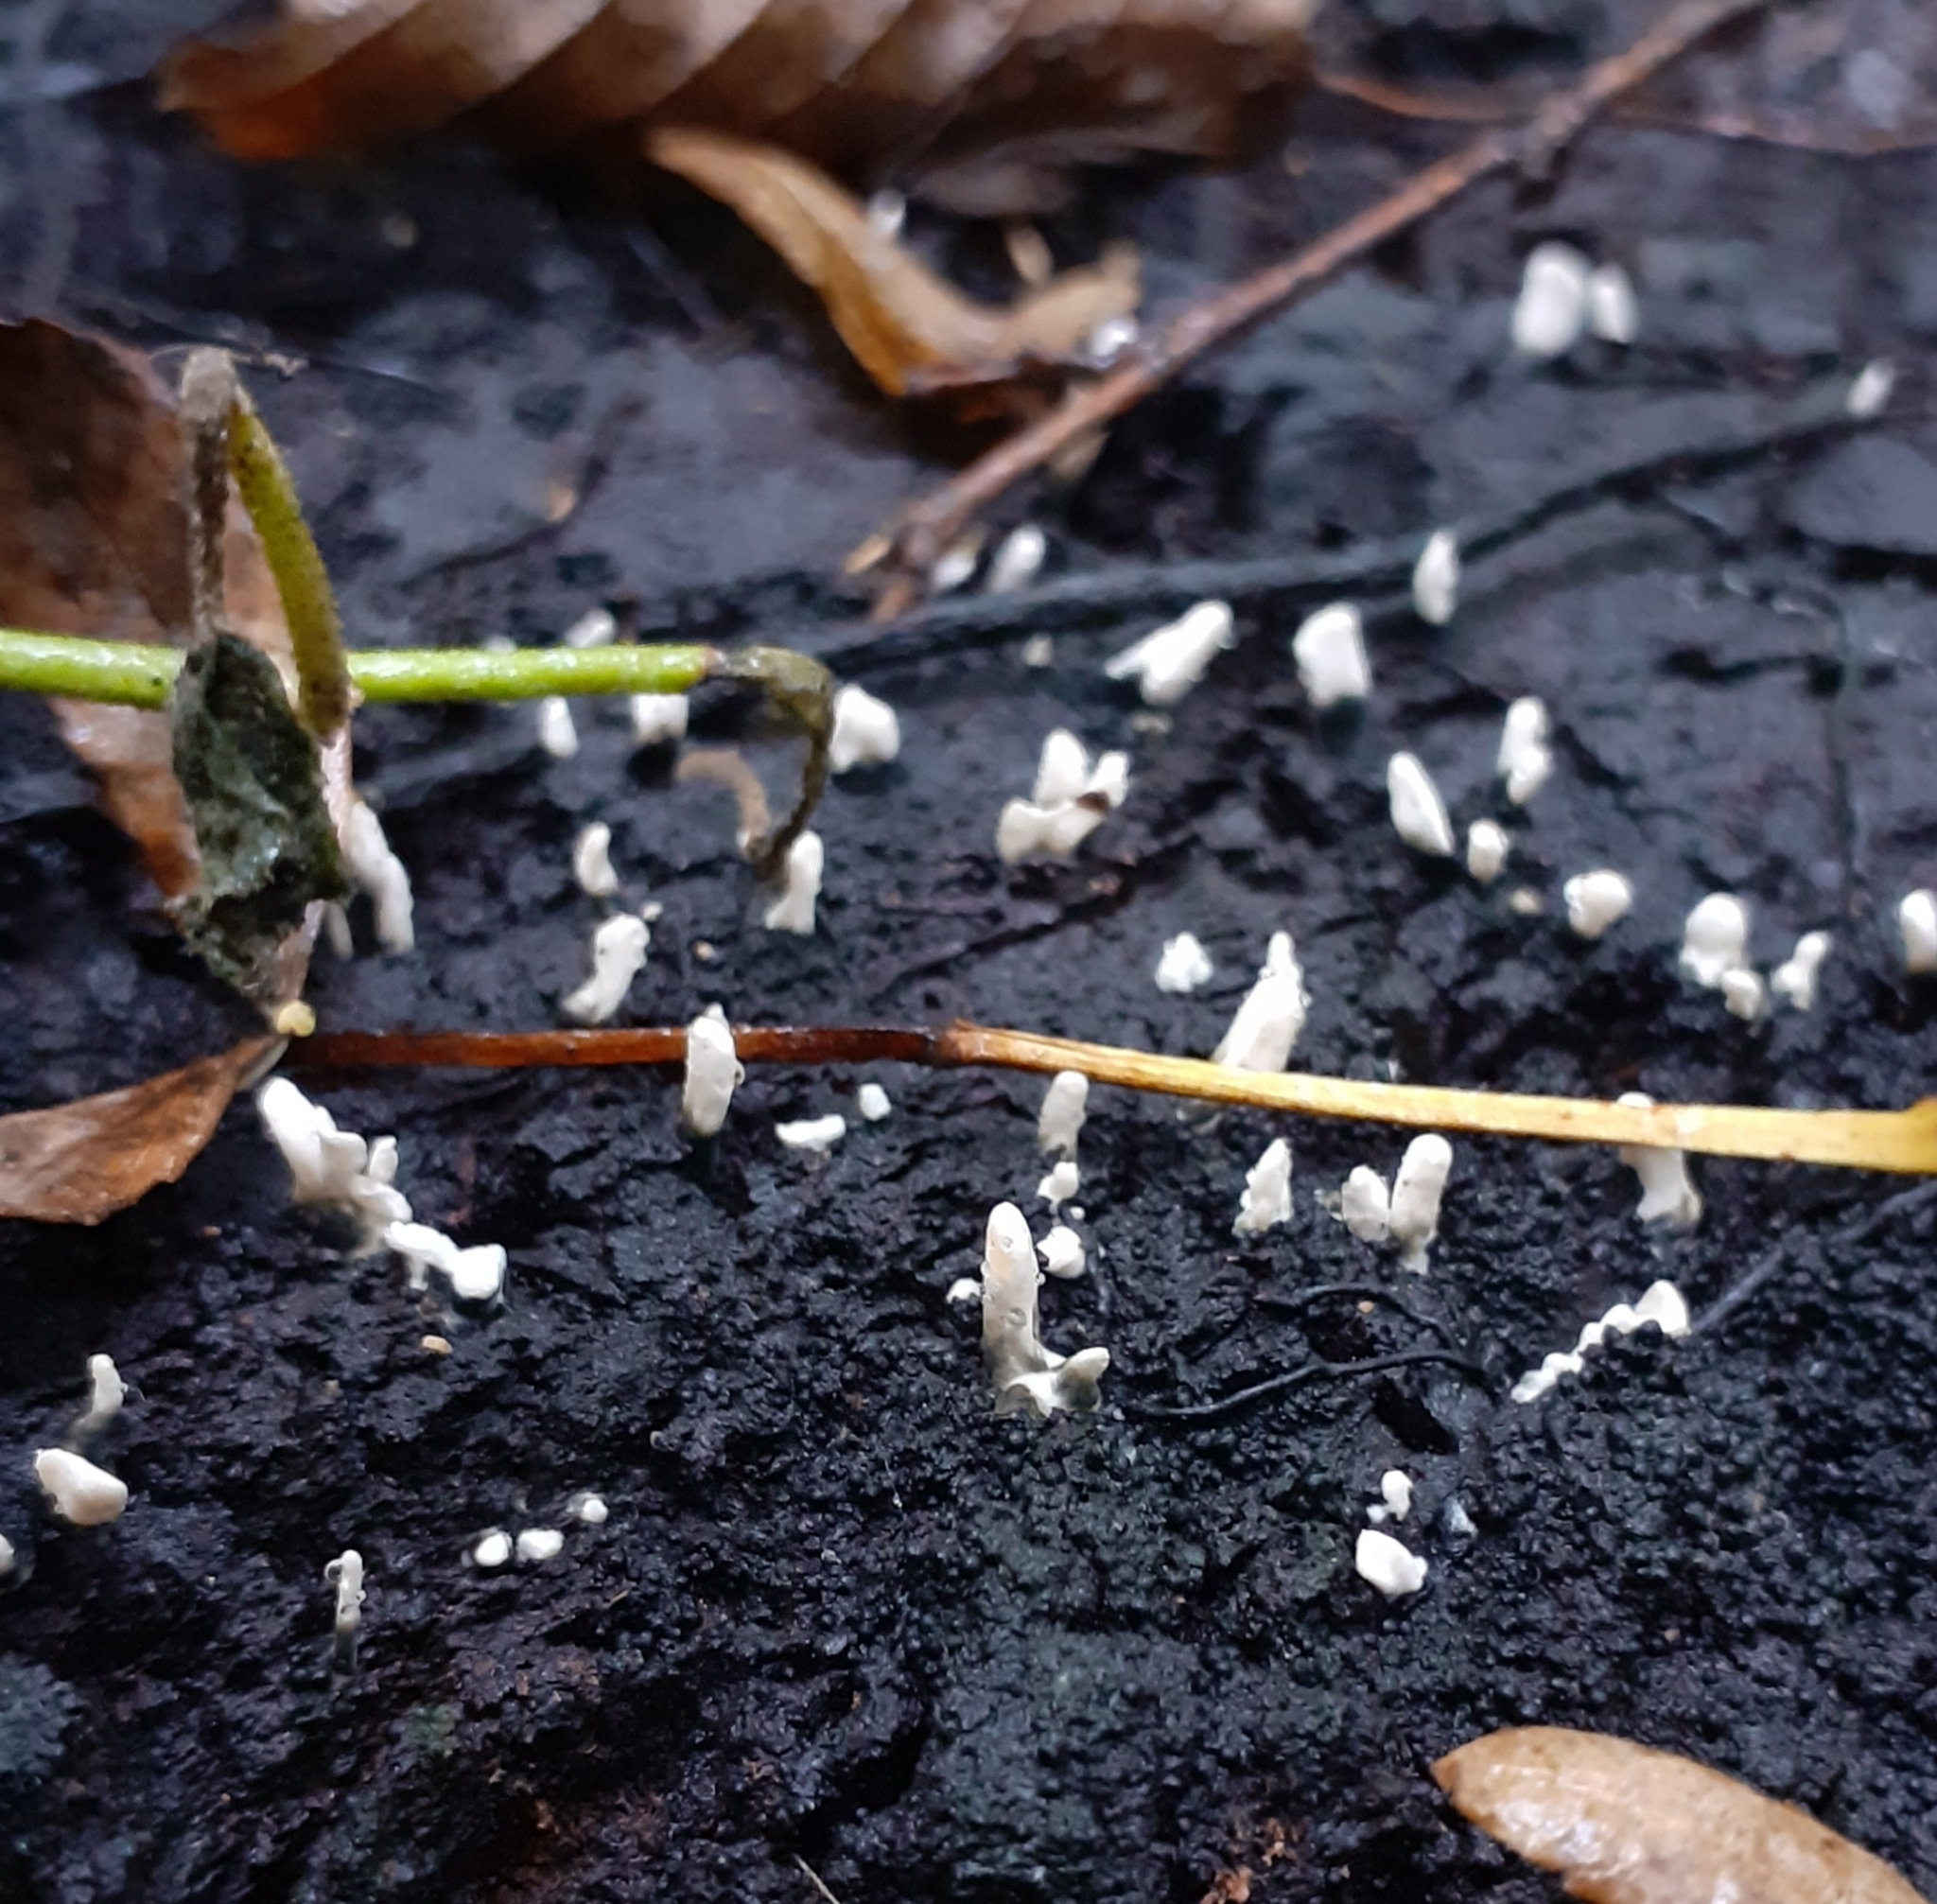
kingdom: Fungi
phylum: Ascomycota
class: Sordariomycetes
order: Xylariales
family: Xylariaceae
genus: Xylaria
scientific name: Xylaria hypoxylon
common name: Candle-snuff fungus
